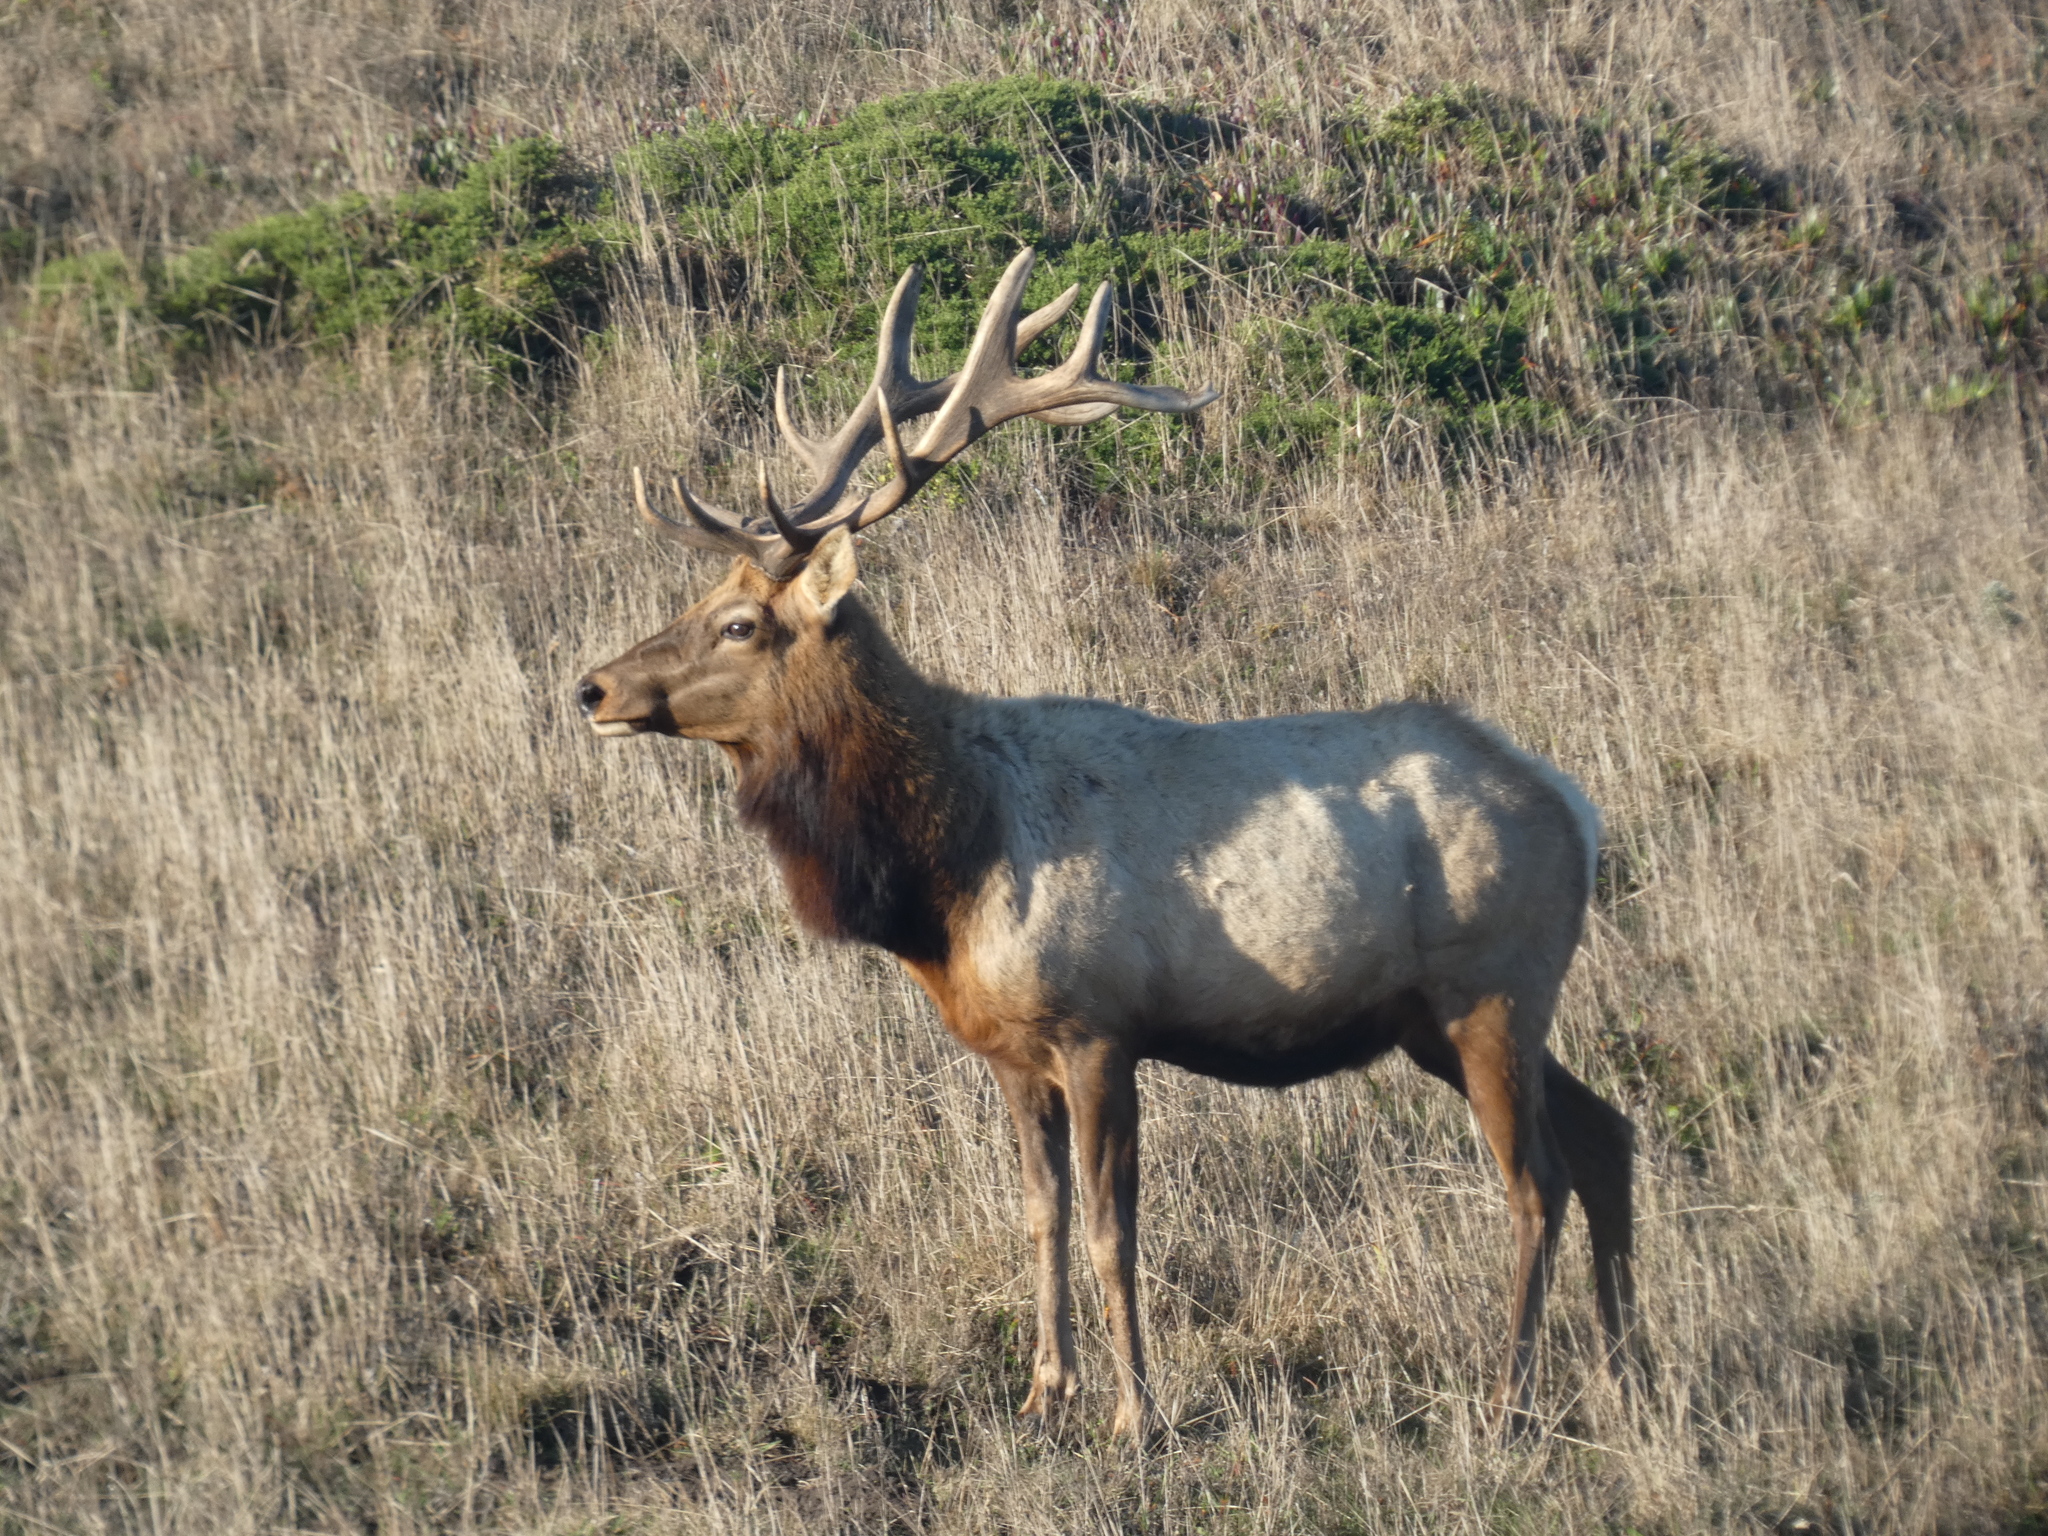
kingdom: Animalia
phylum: Chordata
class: Mammalia
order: Artiodactyla
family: Cervidae
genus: Cervus
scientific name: Cervus elaphus
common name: Red deer
